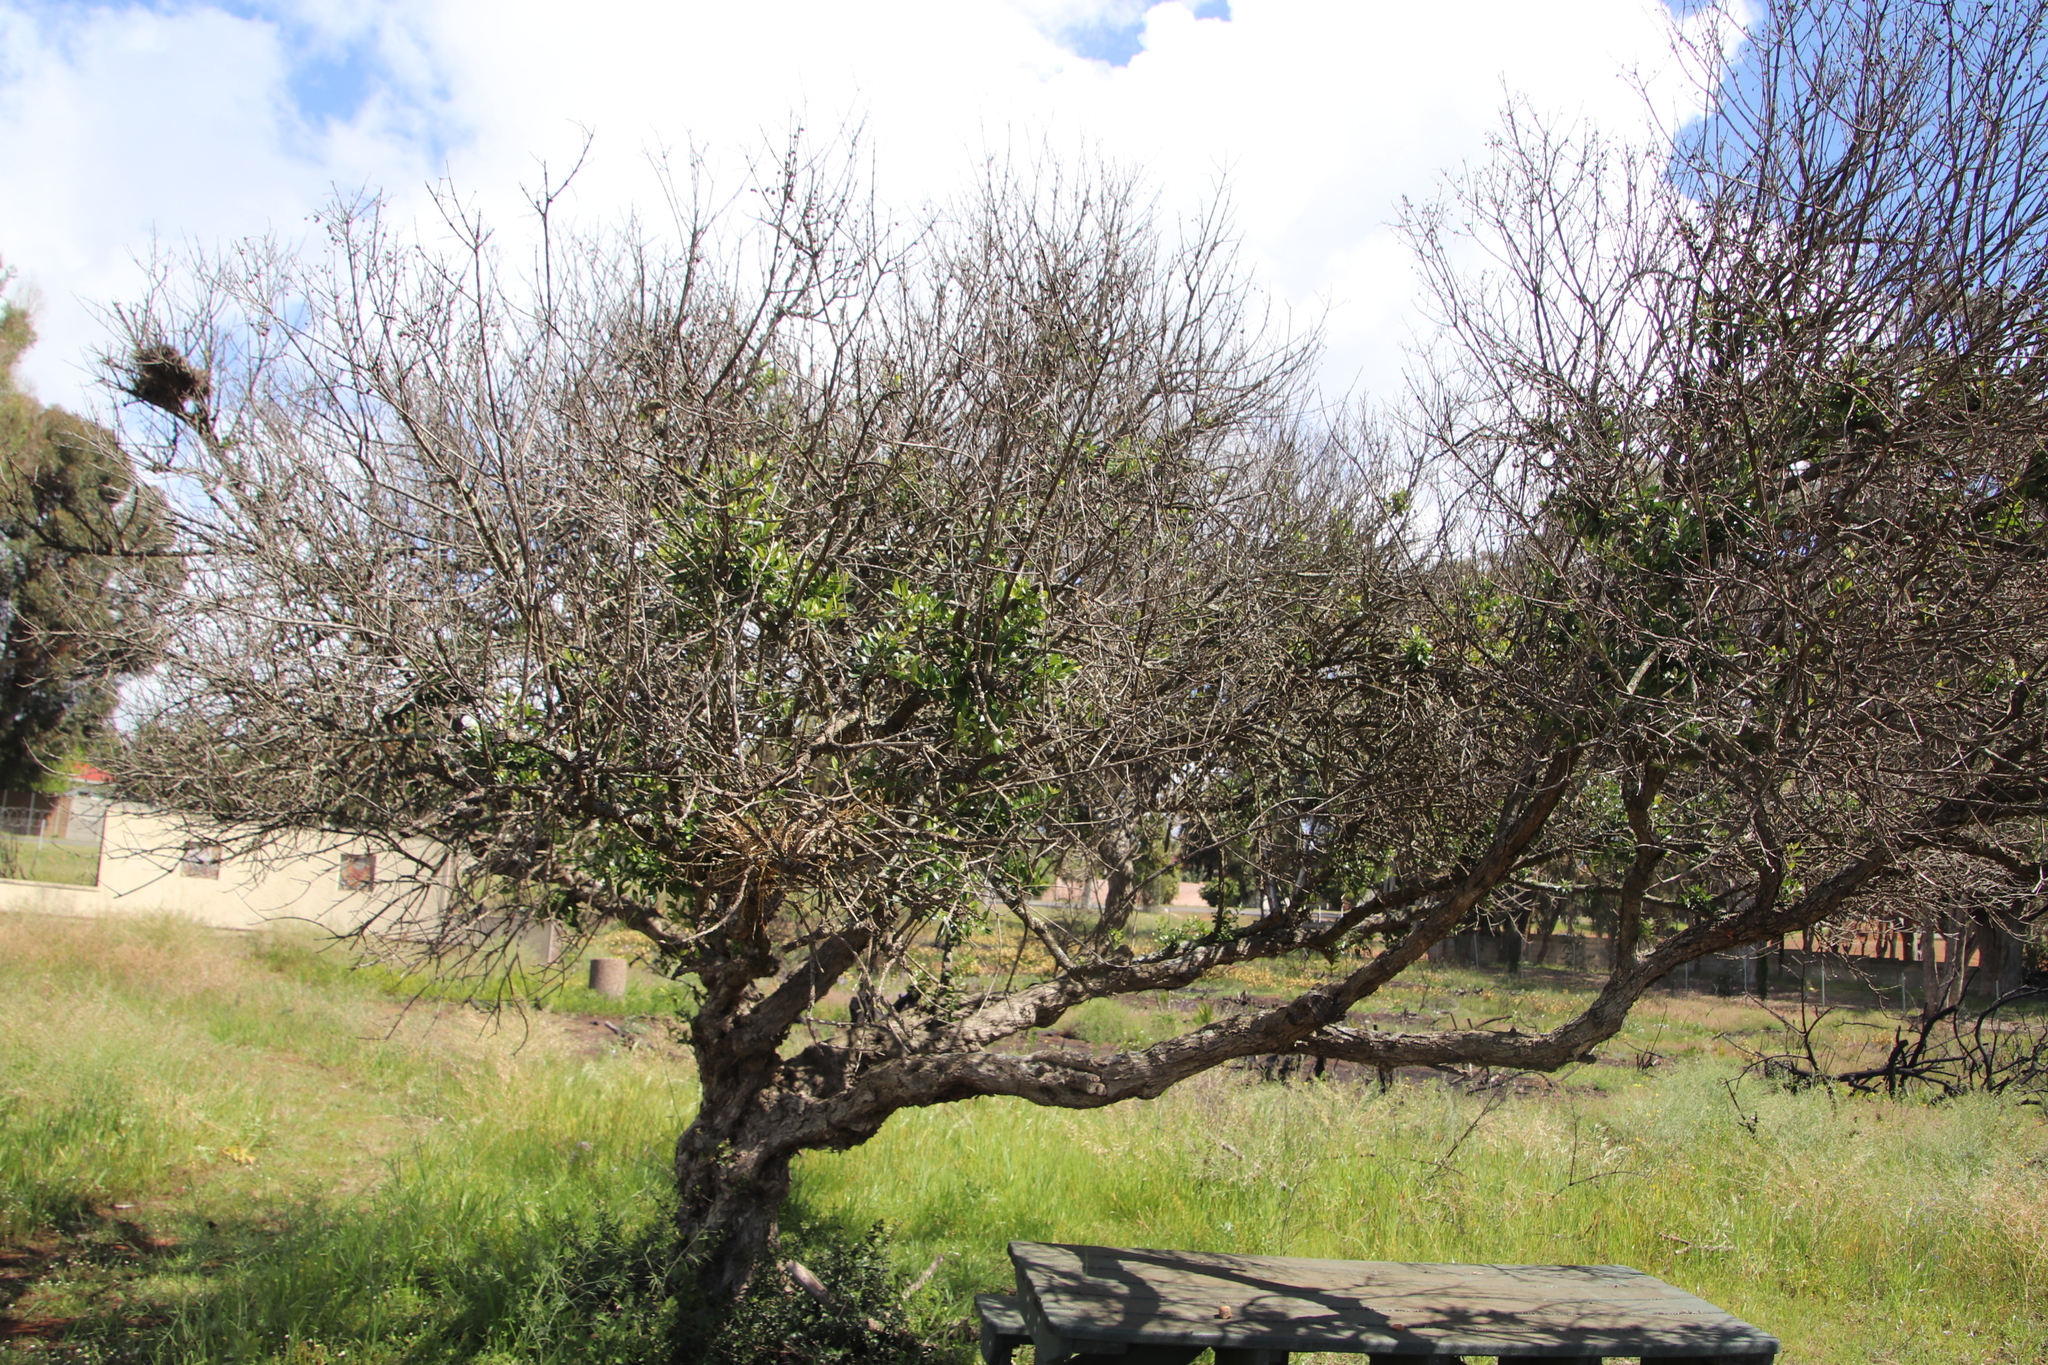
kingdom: Plantae
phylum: Tracheophyta
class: Magnoliopsida
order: Lamiales
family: Oleaceae
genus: Olea
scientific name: Olea europaea
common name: Olive
